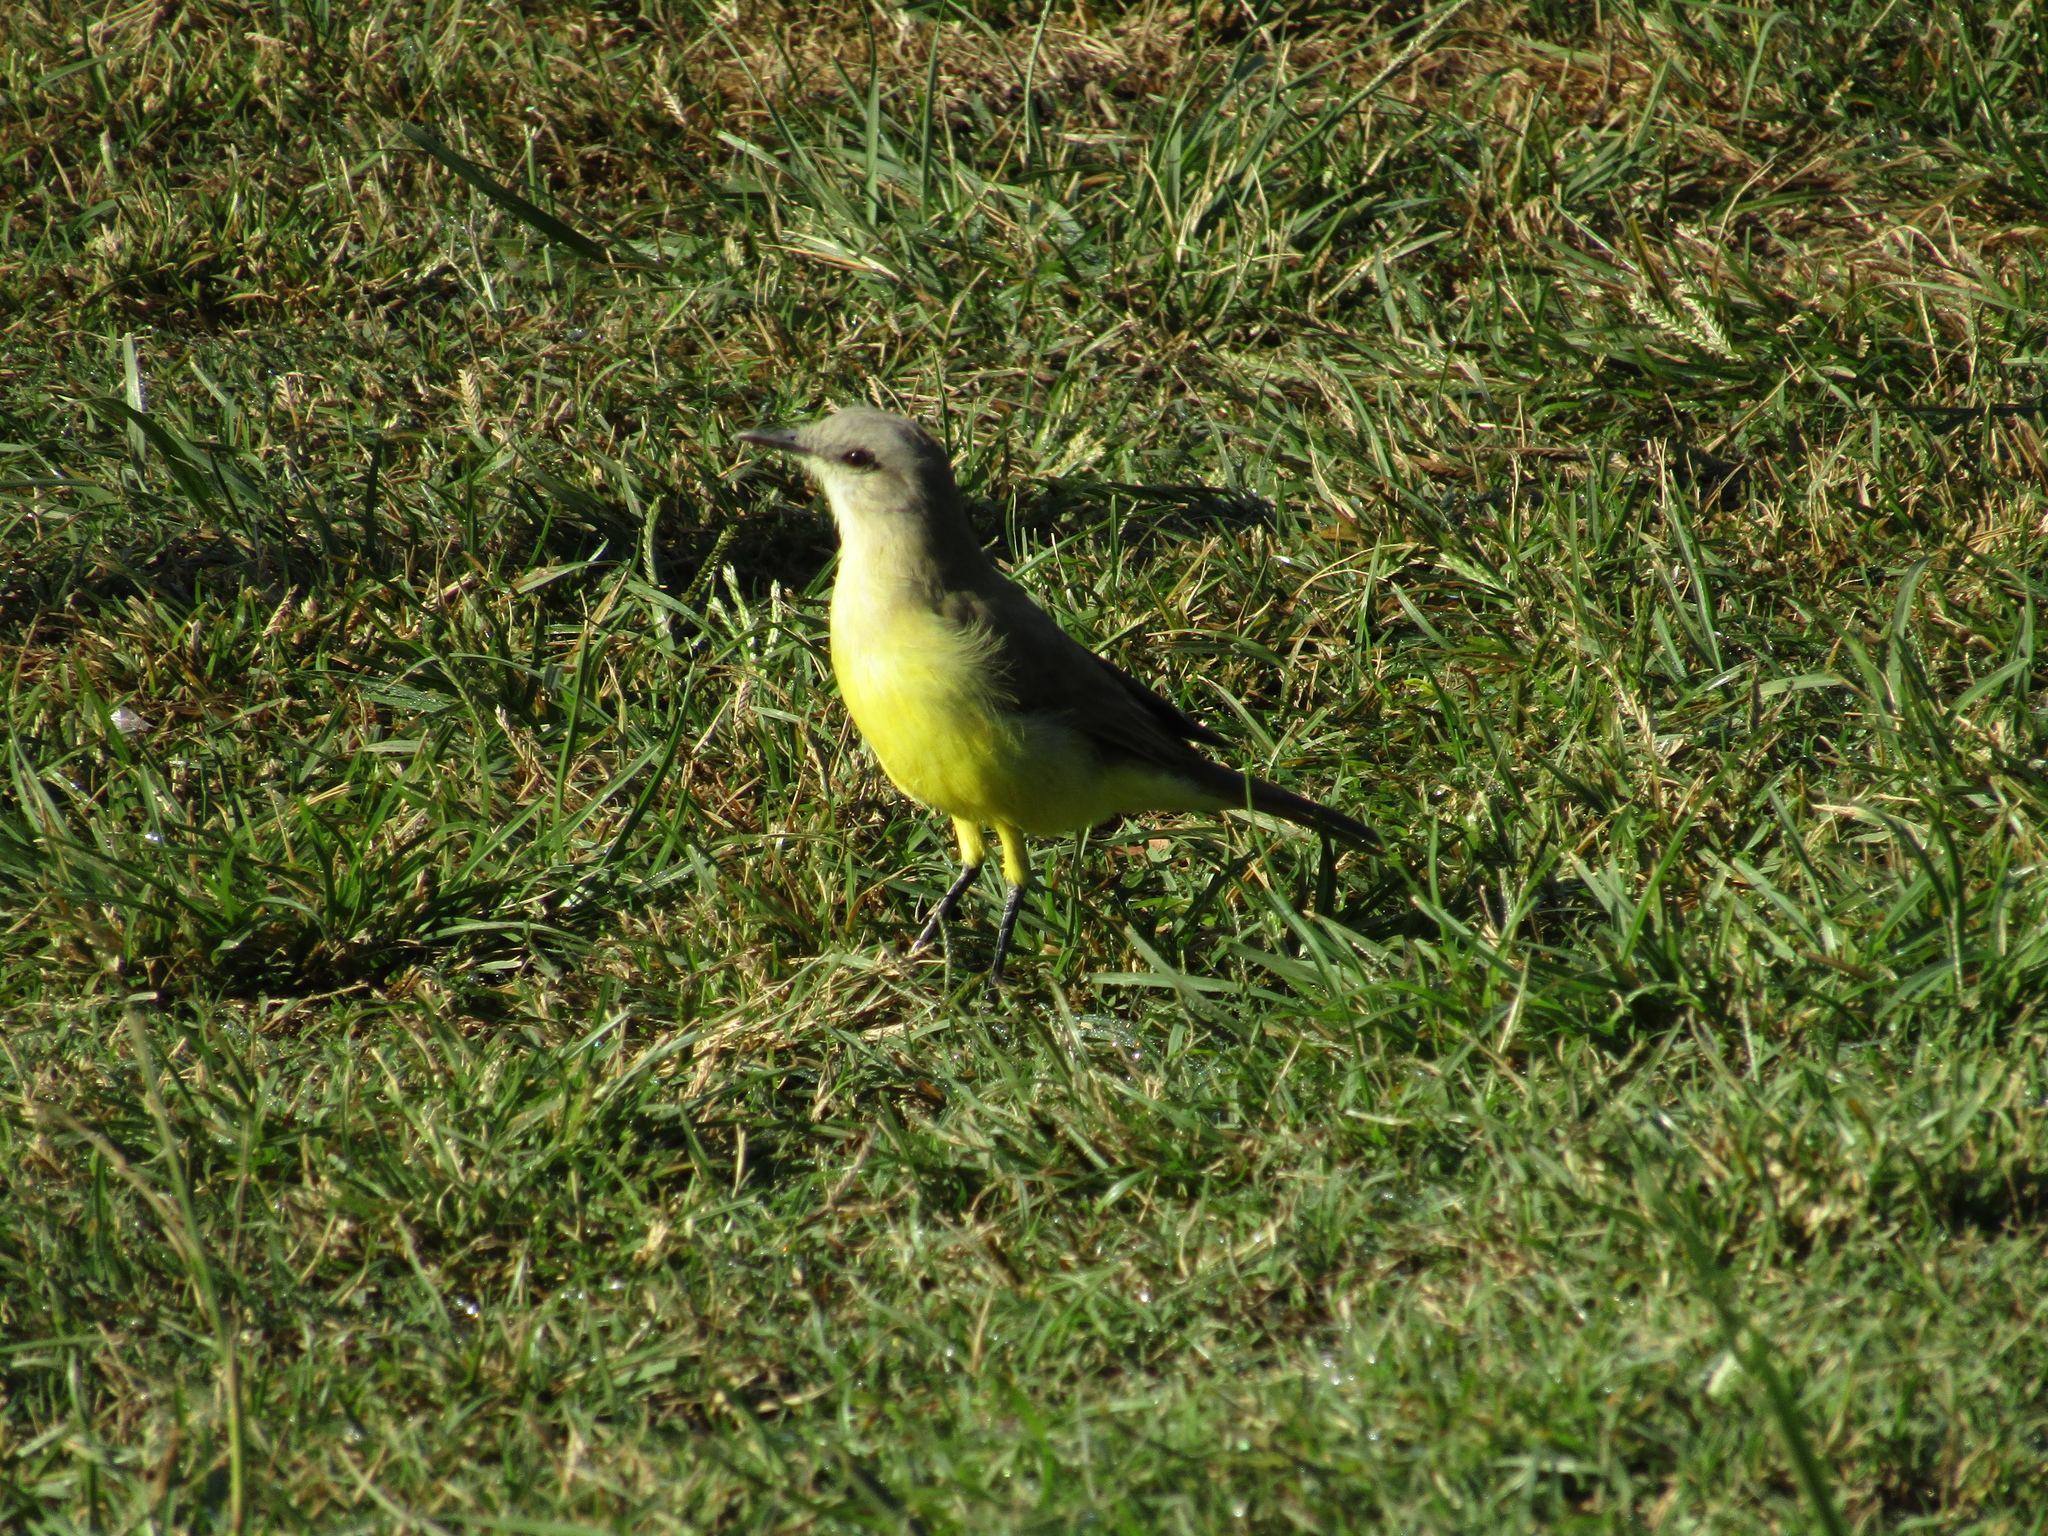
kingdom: Animalia
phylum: Chordata
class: Aves
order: Passeriformes
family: Tyrannidae
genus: Machetornis
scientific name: Machetornis rixosa
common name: Cattle tyrant
